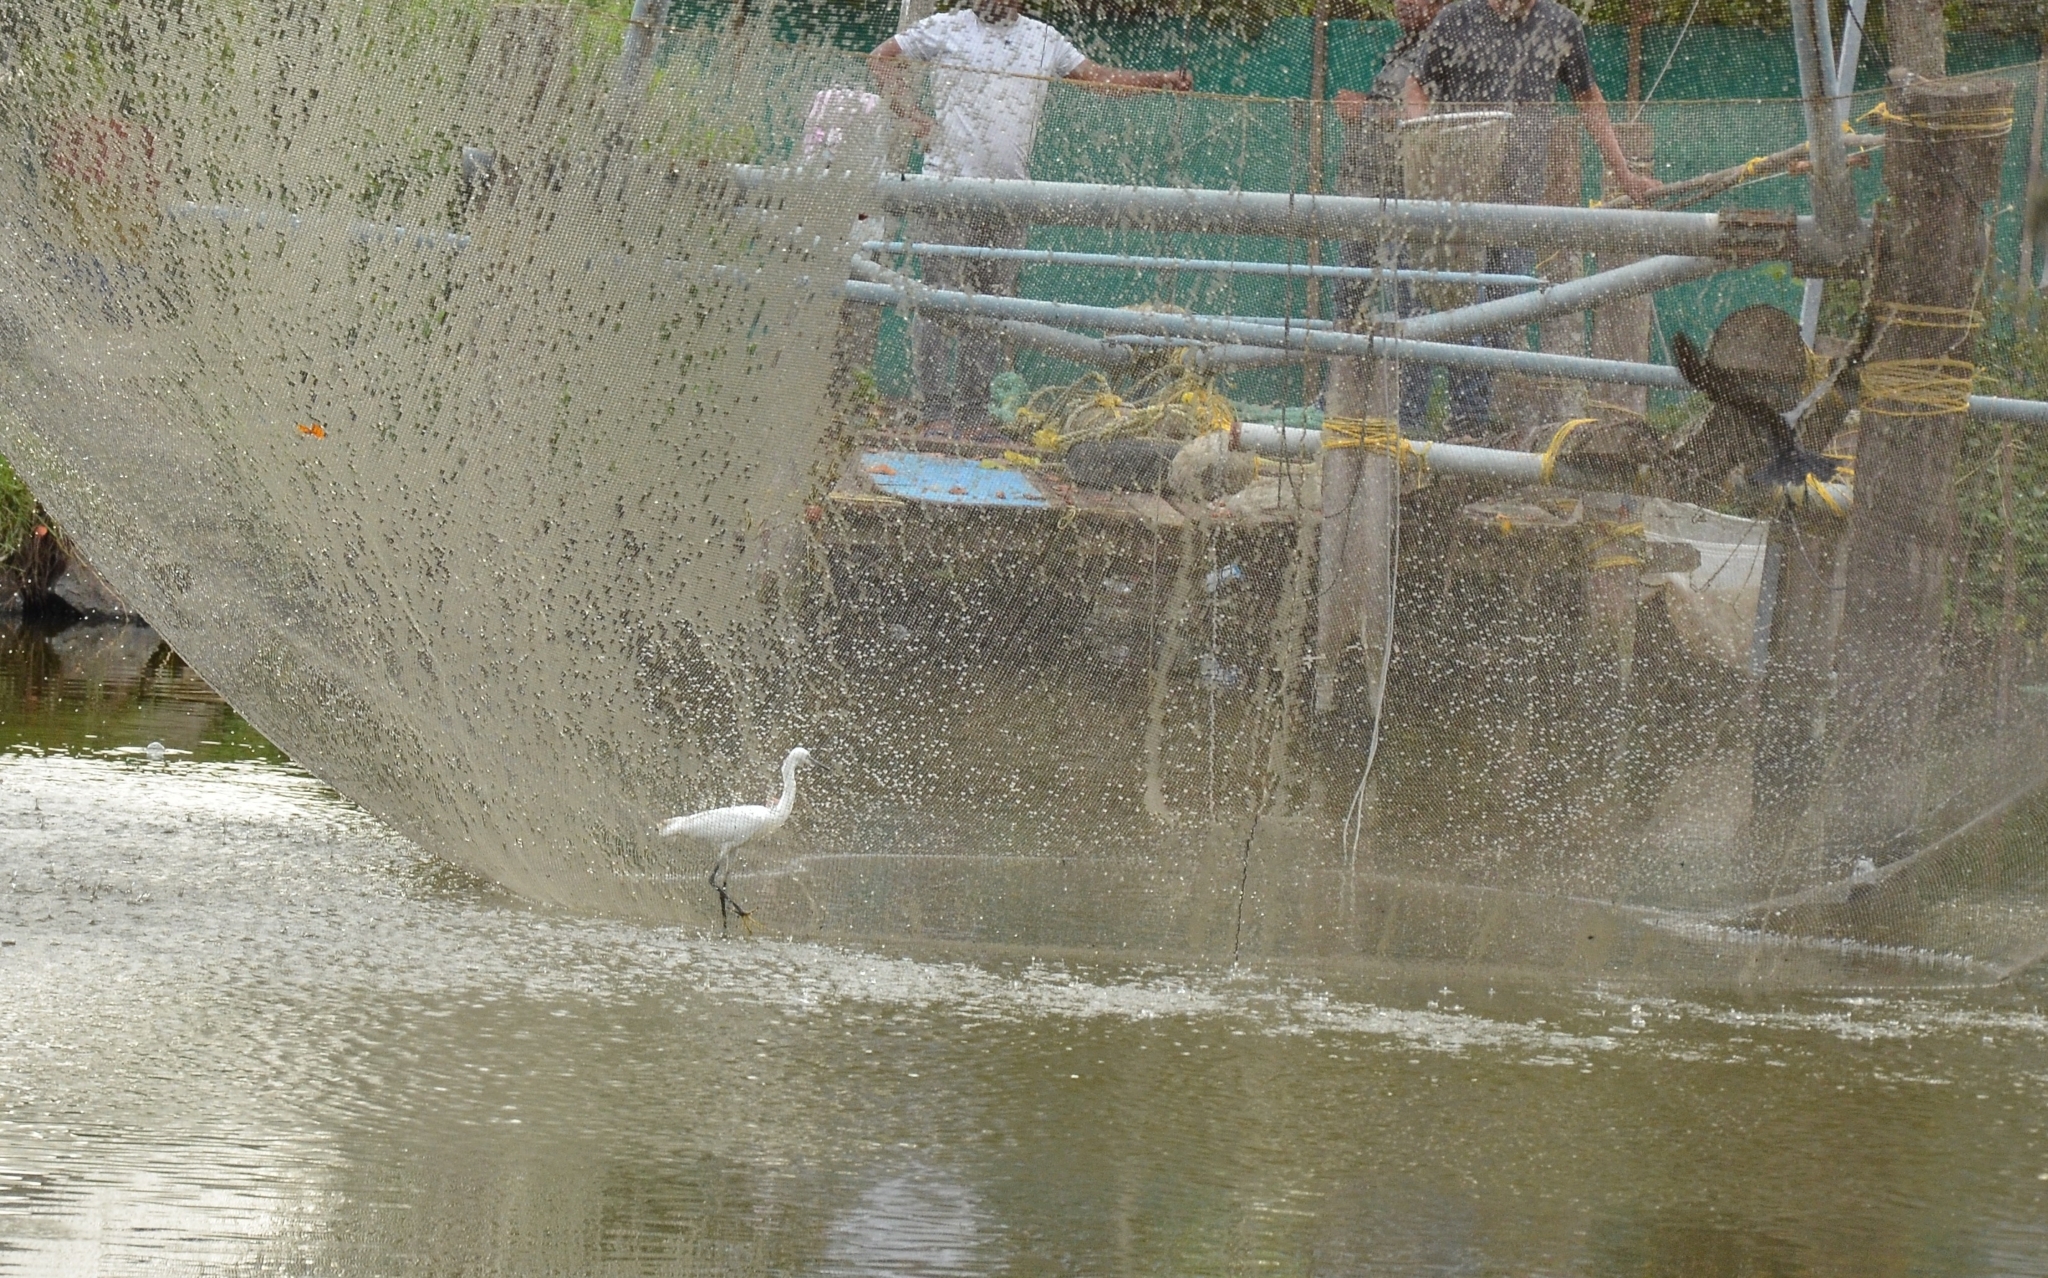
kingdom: Animalia
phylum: Chordata
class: Aves
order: Pelecaniformes
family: Ardeidae
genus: Egretta
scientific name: Egretta garzetta
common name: Little egret
